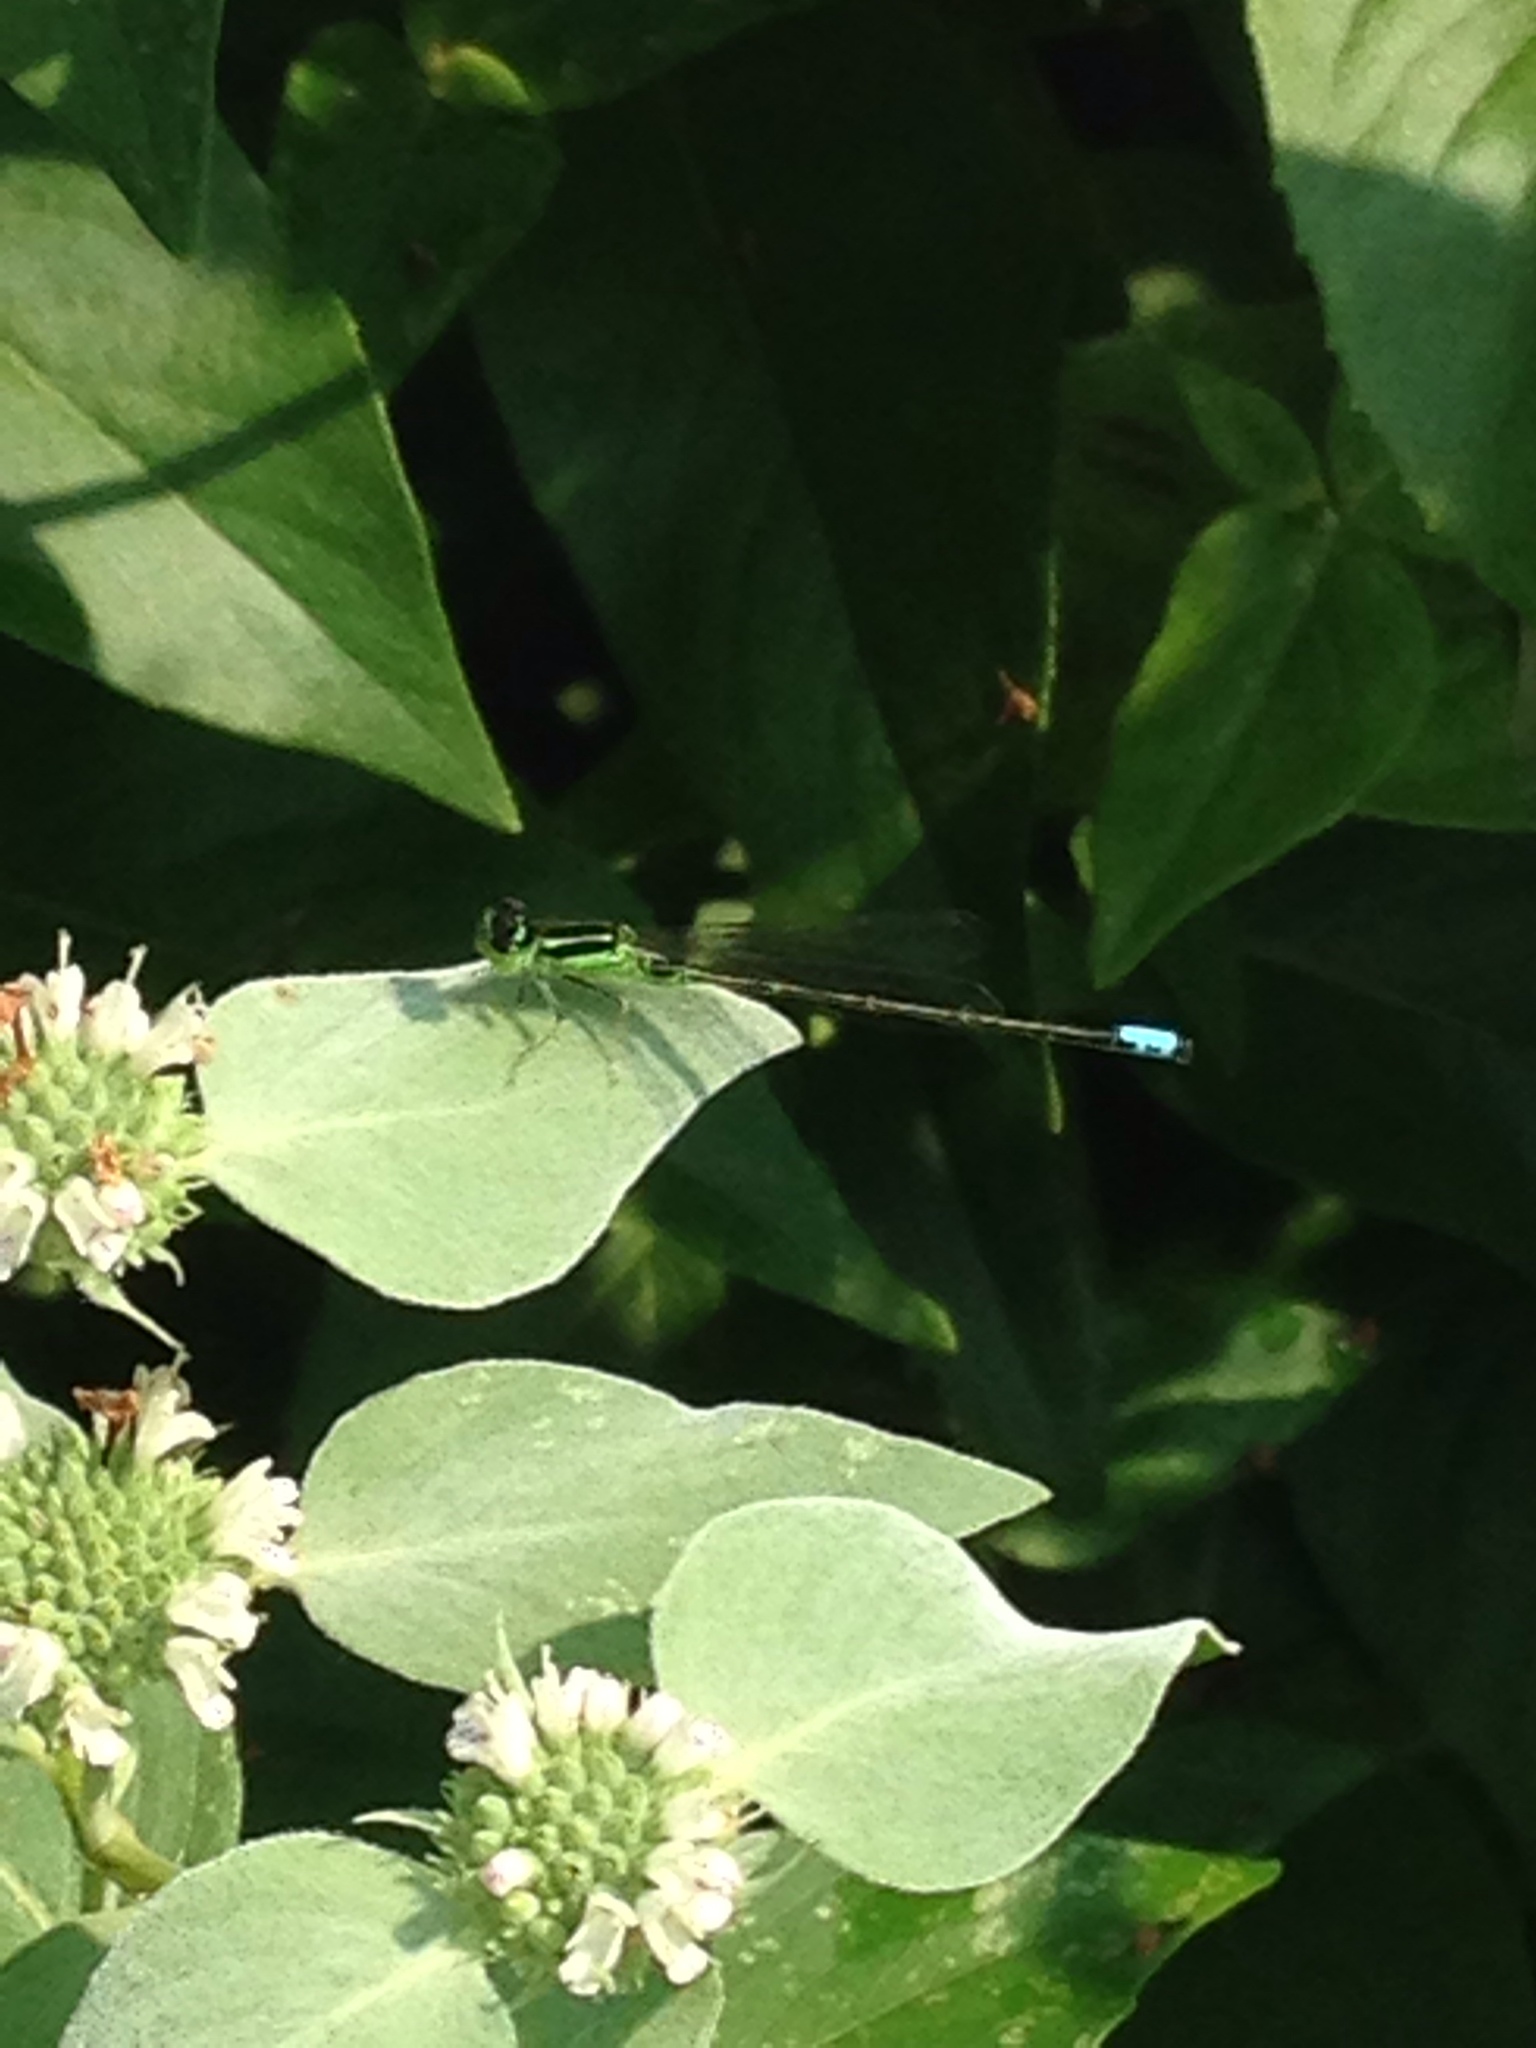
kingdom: Animalia
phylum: Arthropoda
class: Insecta
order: Odonata
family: Coenagrionidae
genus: Ischnura
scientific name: Ischnura verticalis
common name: Eastern forktail
